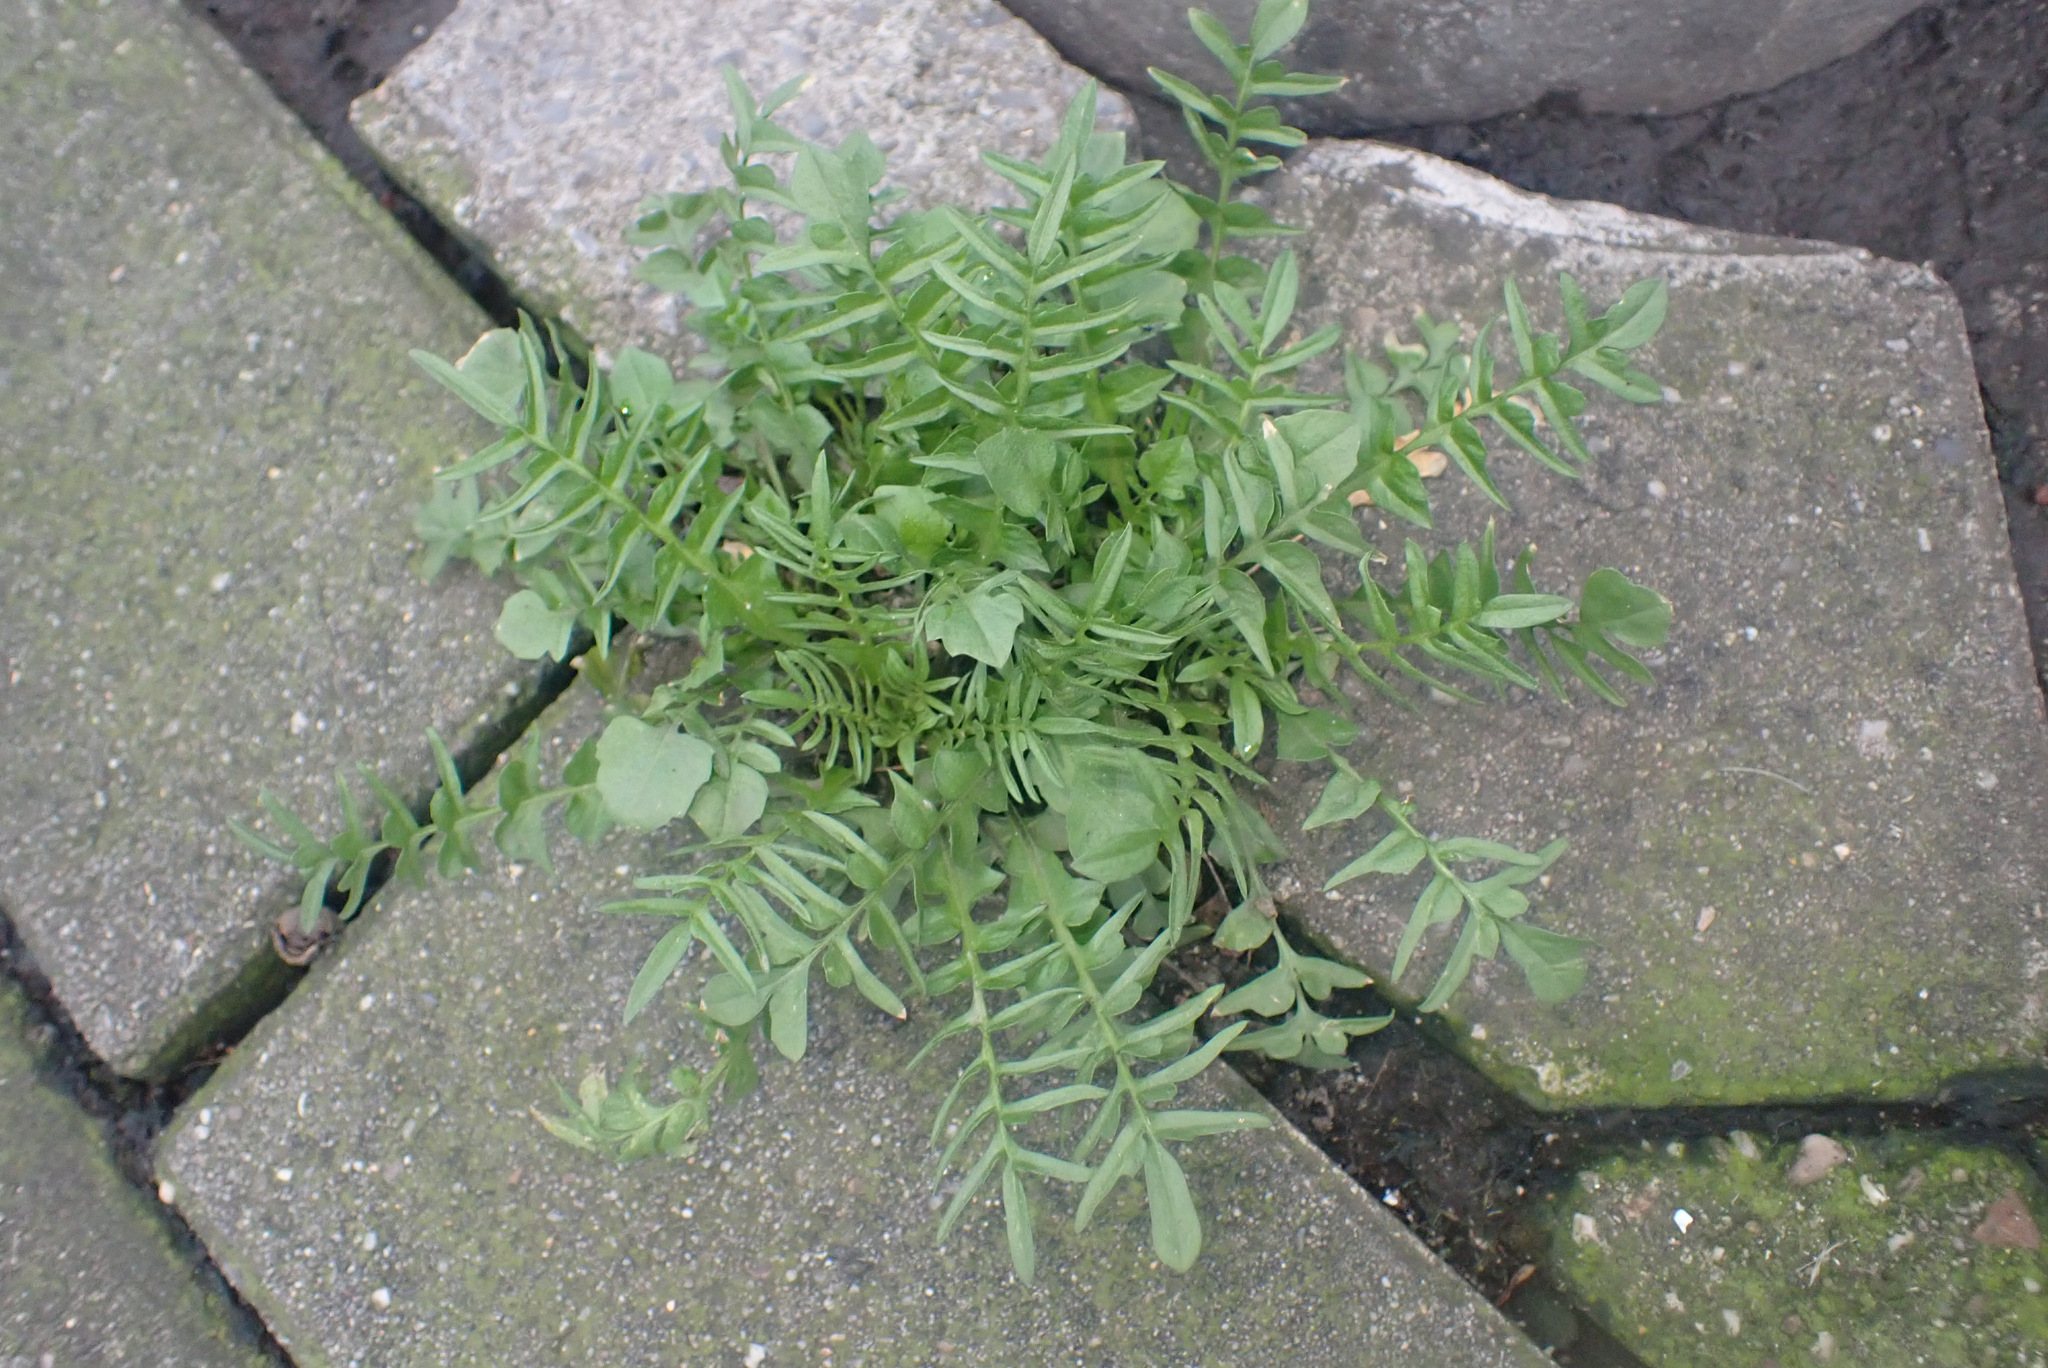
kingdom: Plantae
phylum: Tracheophyta
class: Magnoliopsida
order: Brassicales
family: Brassicaceae
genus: Capsella
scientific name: Capsella bursa-pastoris
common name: Shepherd's purse
